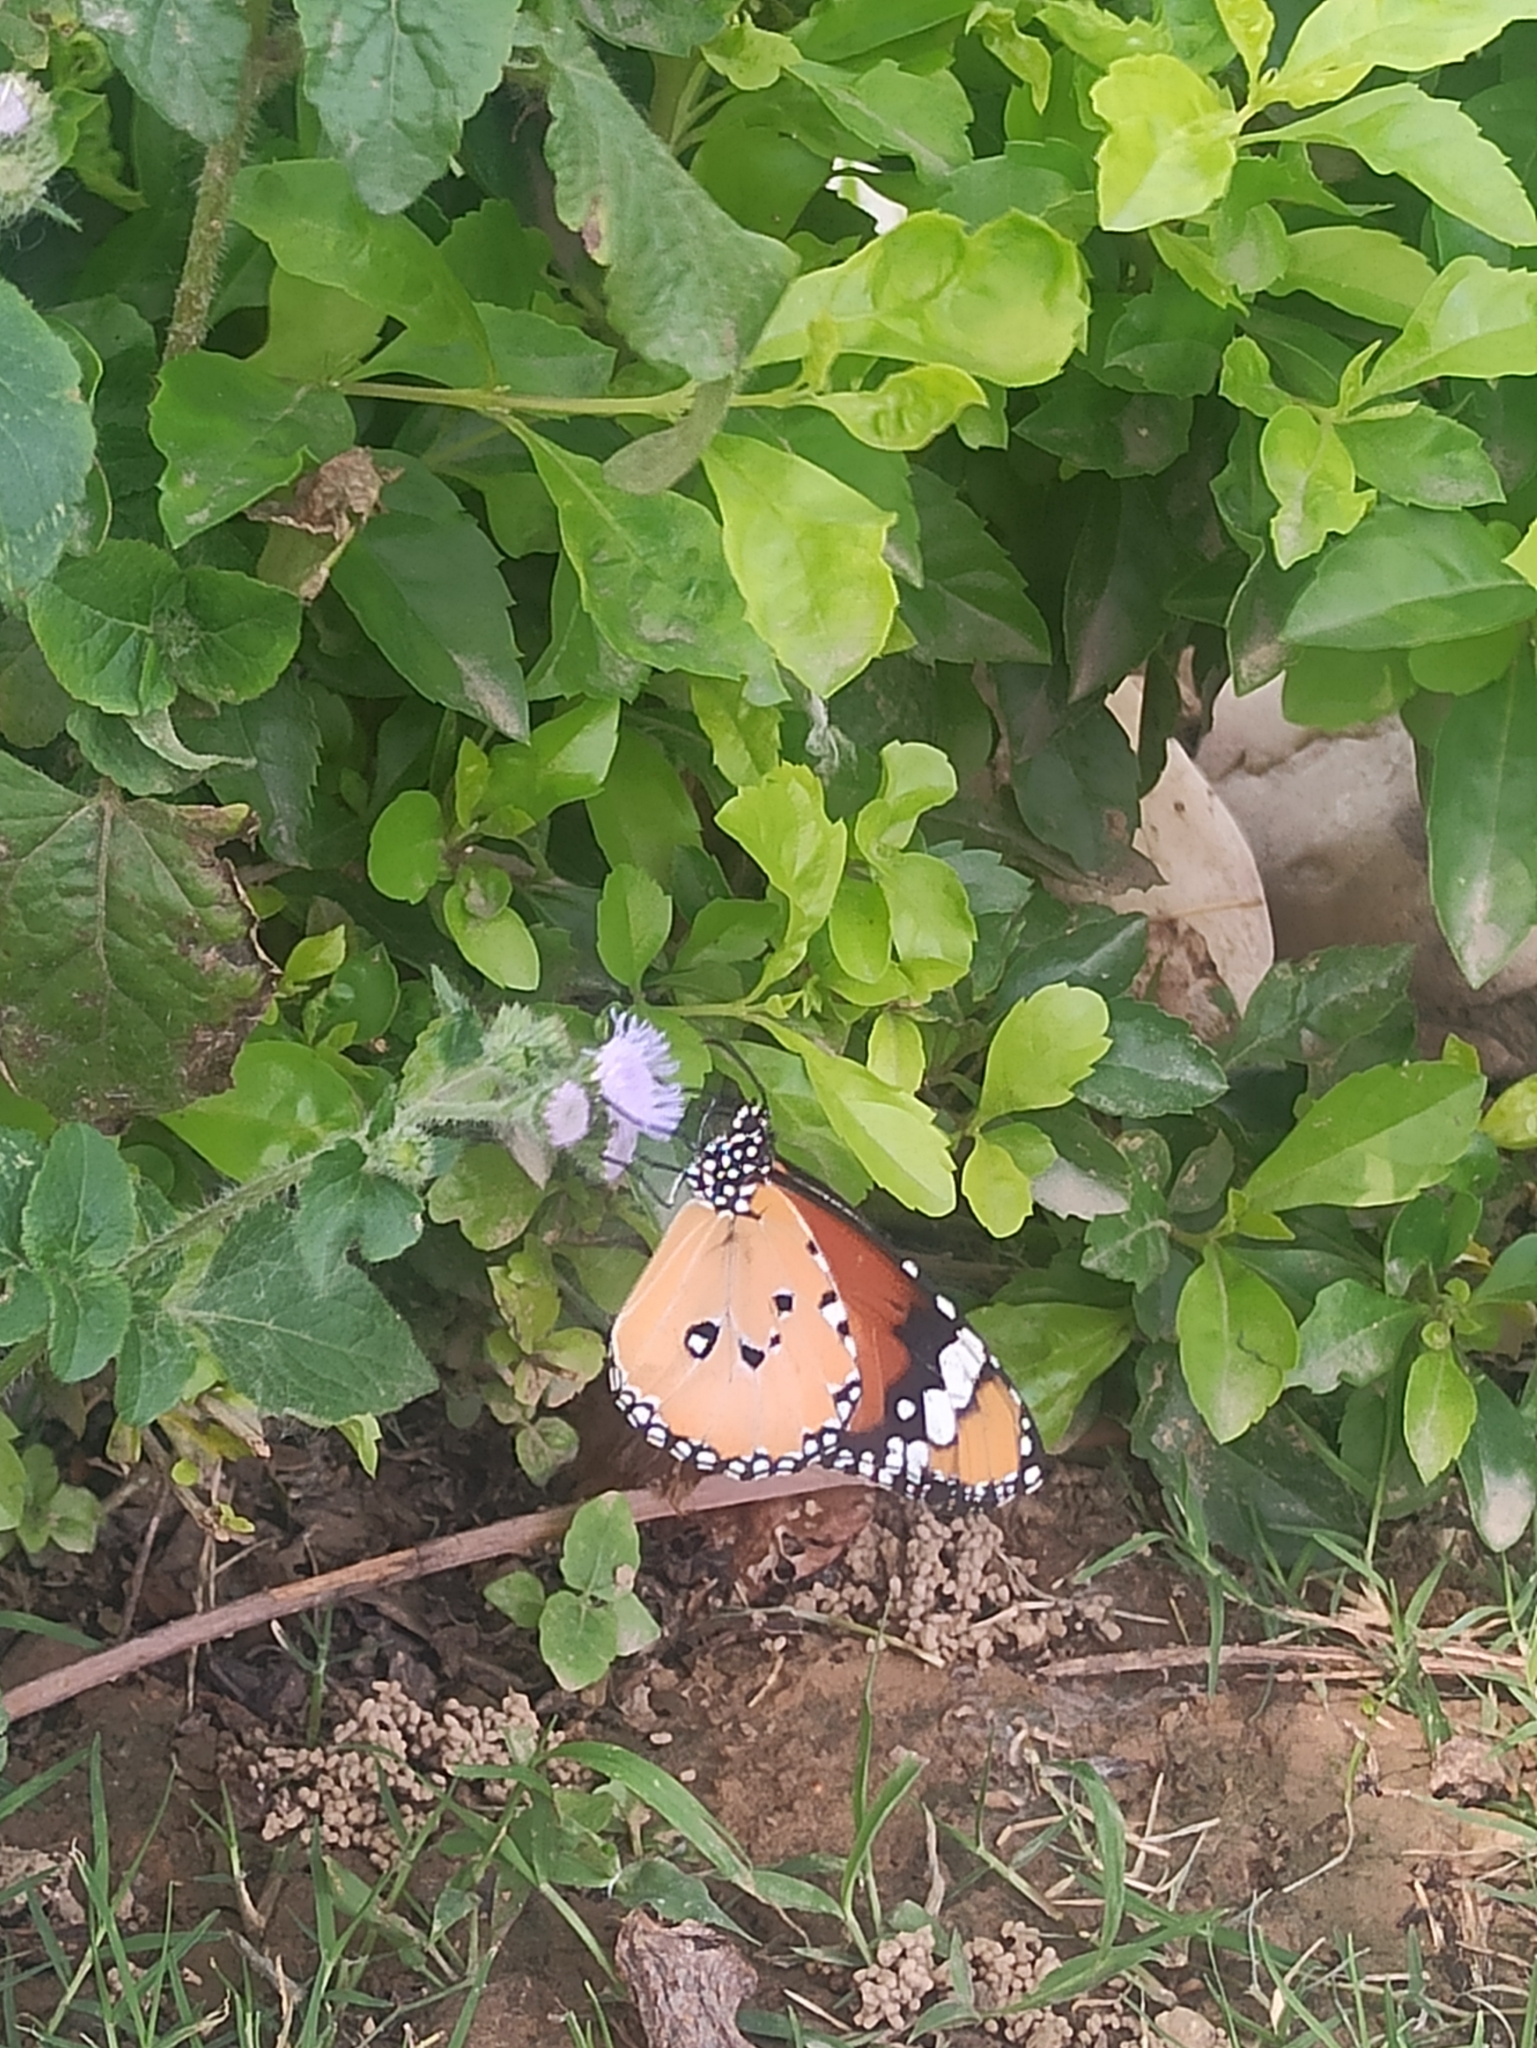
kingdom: Animalia
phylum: Arthropoda
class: Insecta
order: Lepidoptera
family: Nymphalidae
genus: Danaus
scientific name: Danaus chrysippus
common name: Plain tiger
